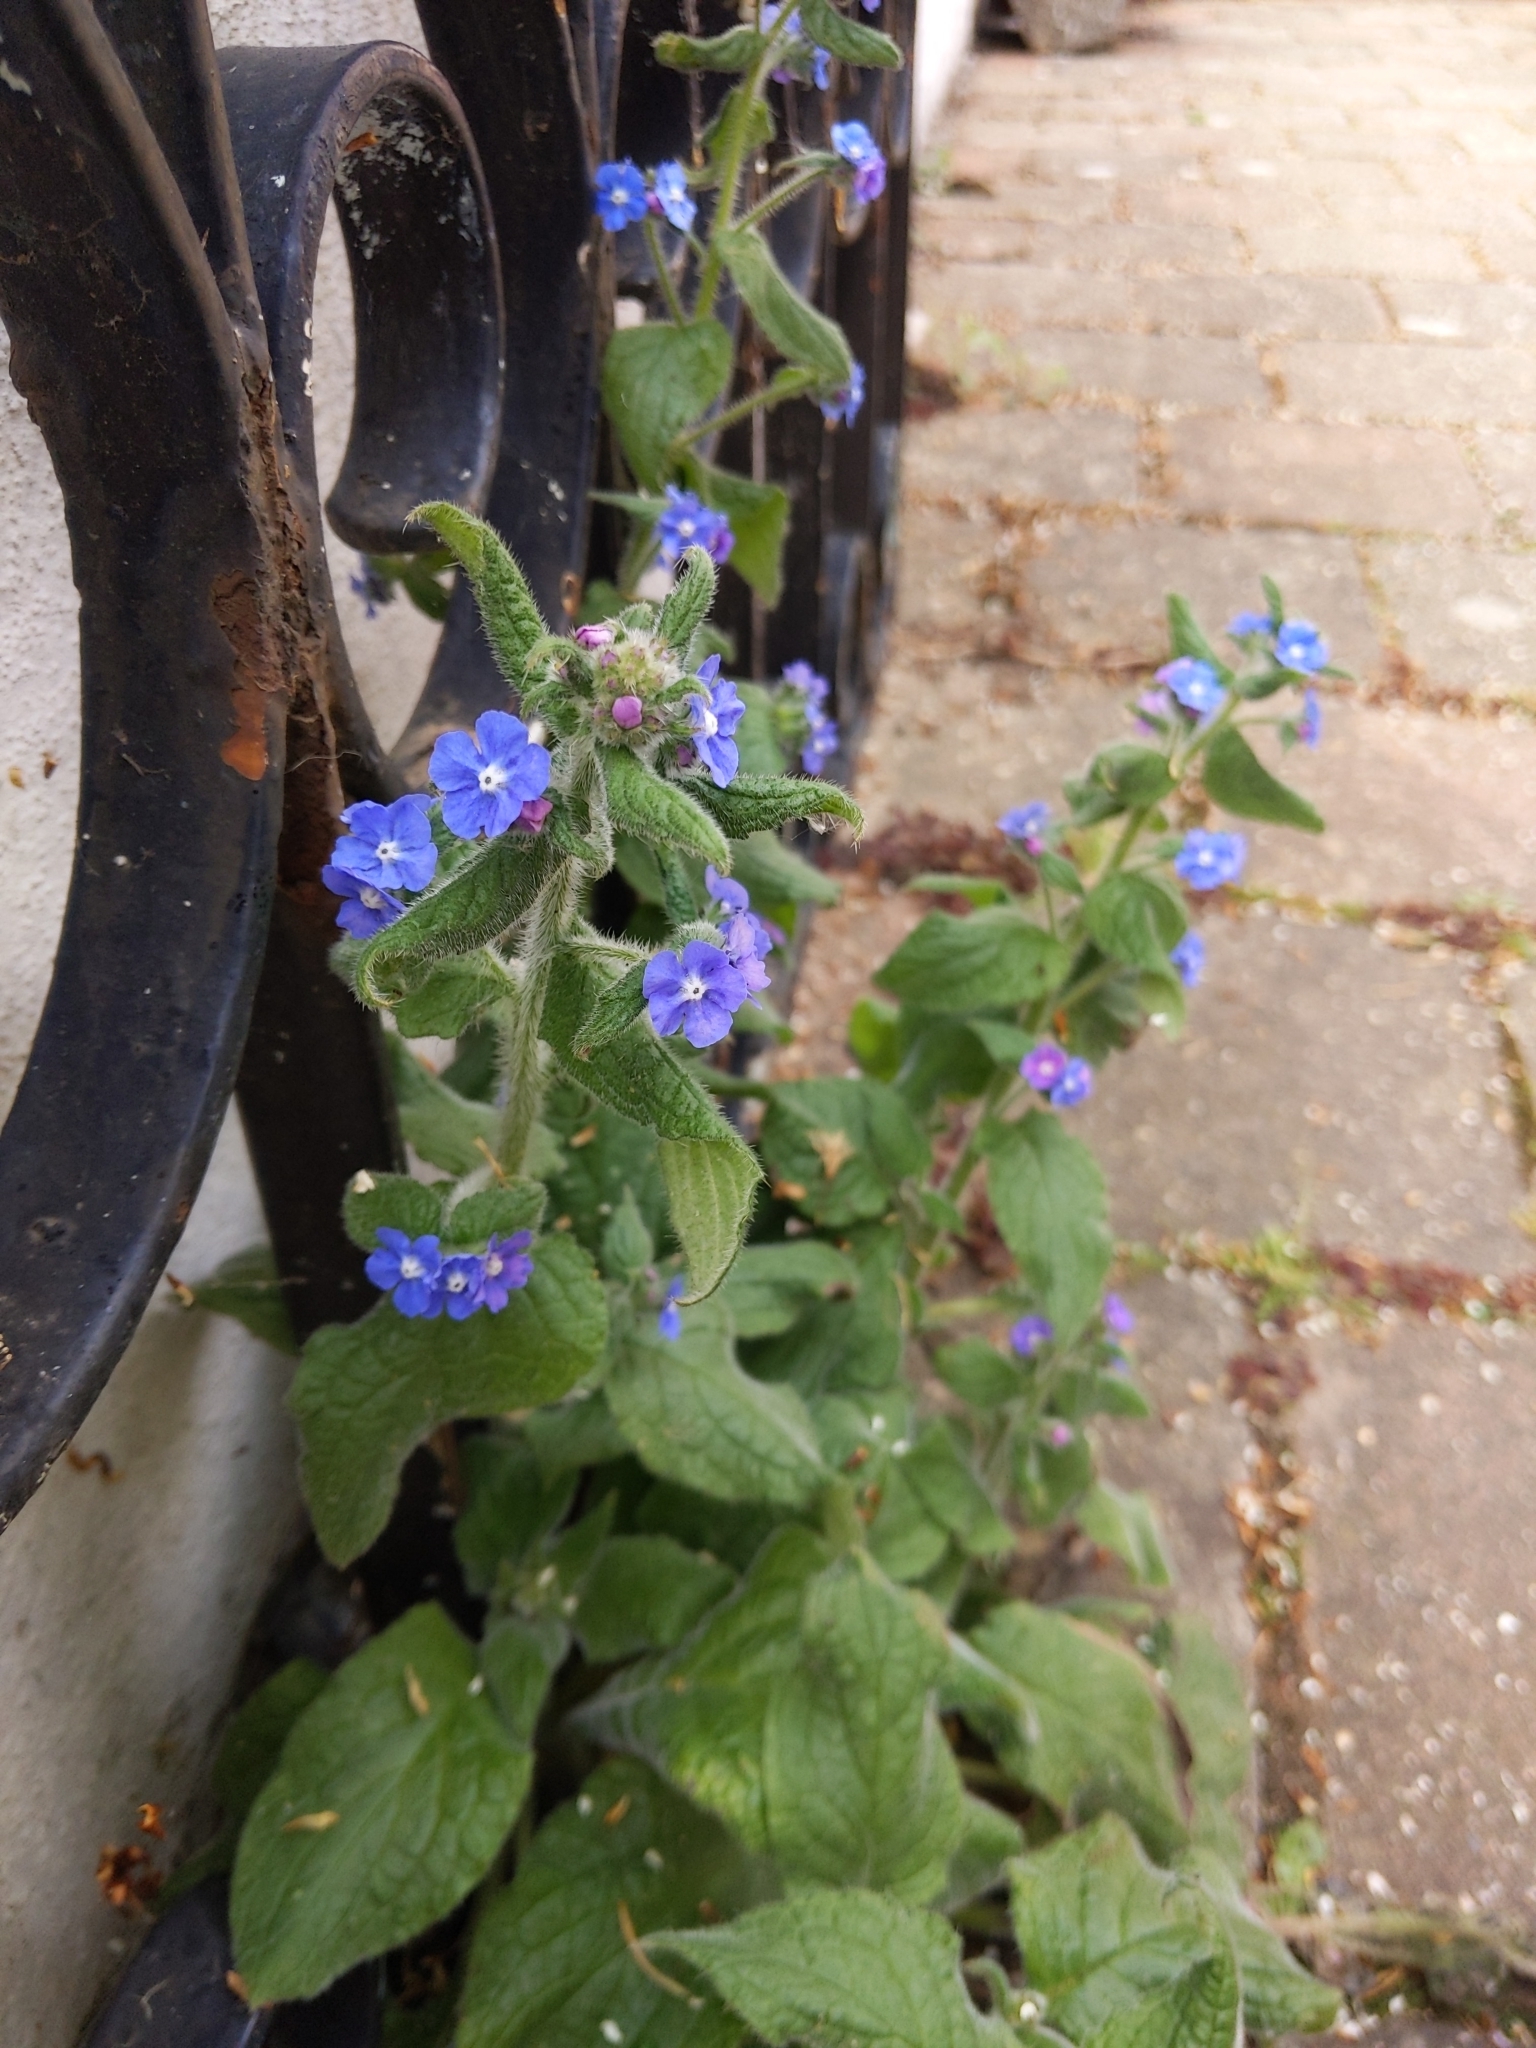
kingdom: Plantae
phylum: Tracheophyta
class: Magnoliopsida
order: Boraginales
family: Boraginaceae
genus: Pentaglottis
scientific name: Pentaglottis sempervirens
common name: Green alkanet
